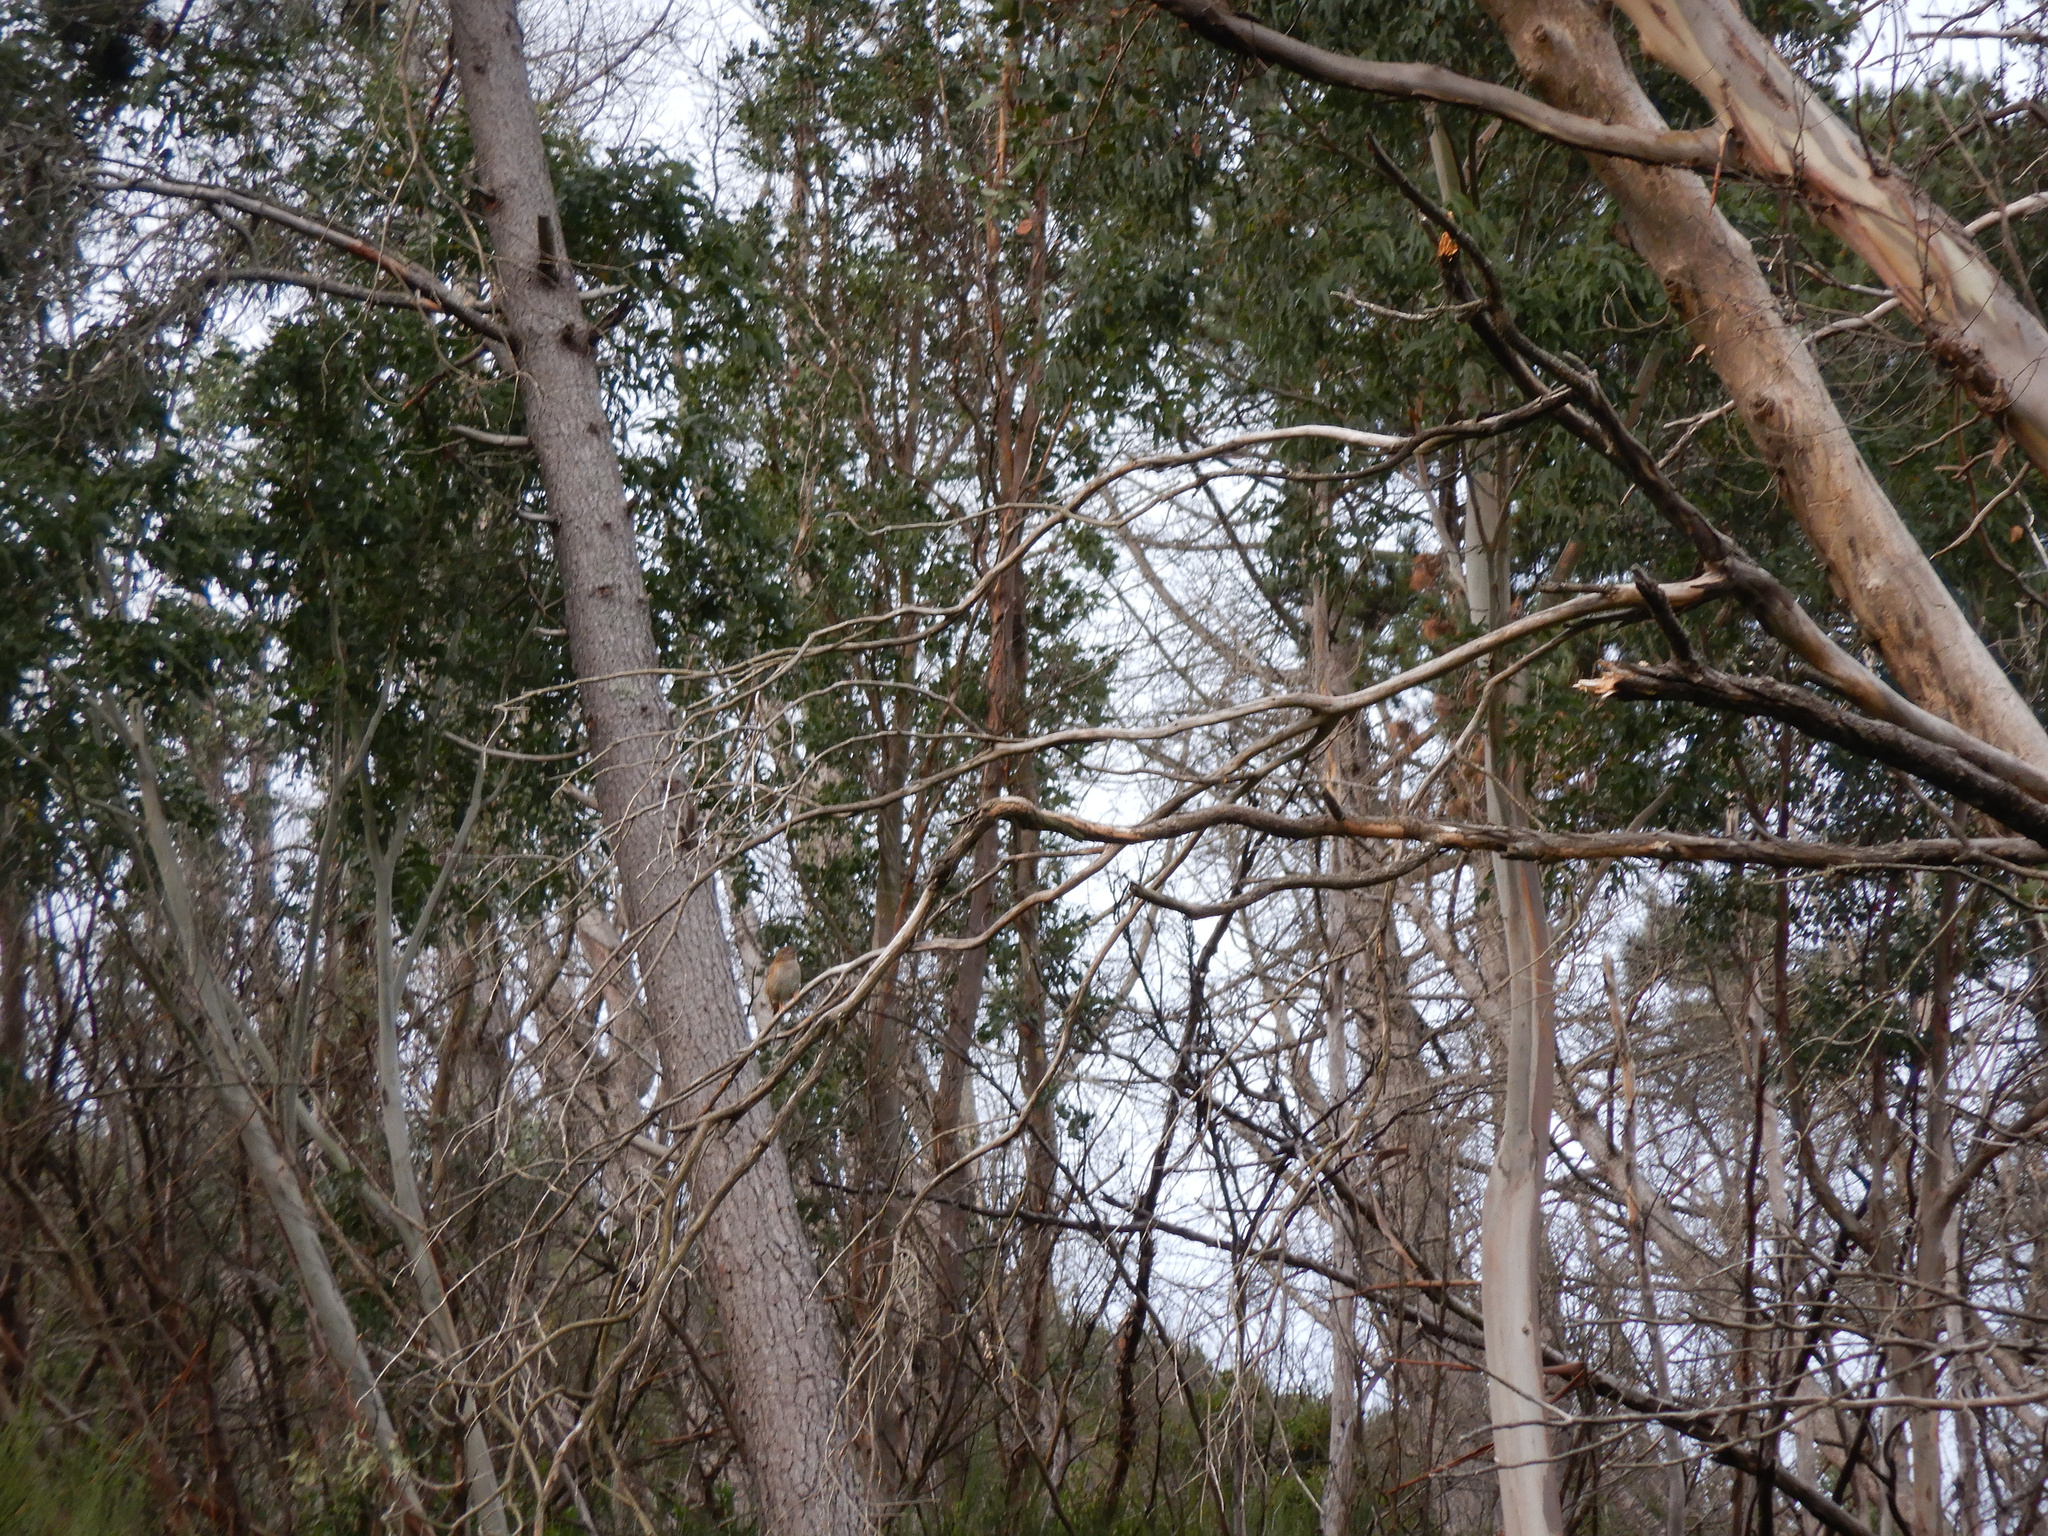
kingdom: Animalia
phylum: Chordata
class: Aves
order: Passeriformes
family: Prunellidae
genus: Prunella
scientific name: Prunella modularis
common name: Dunnock
